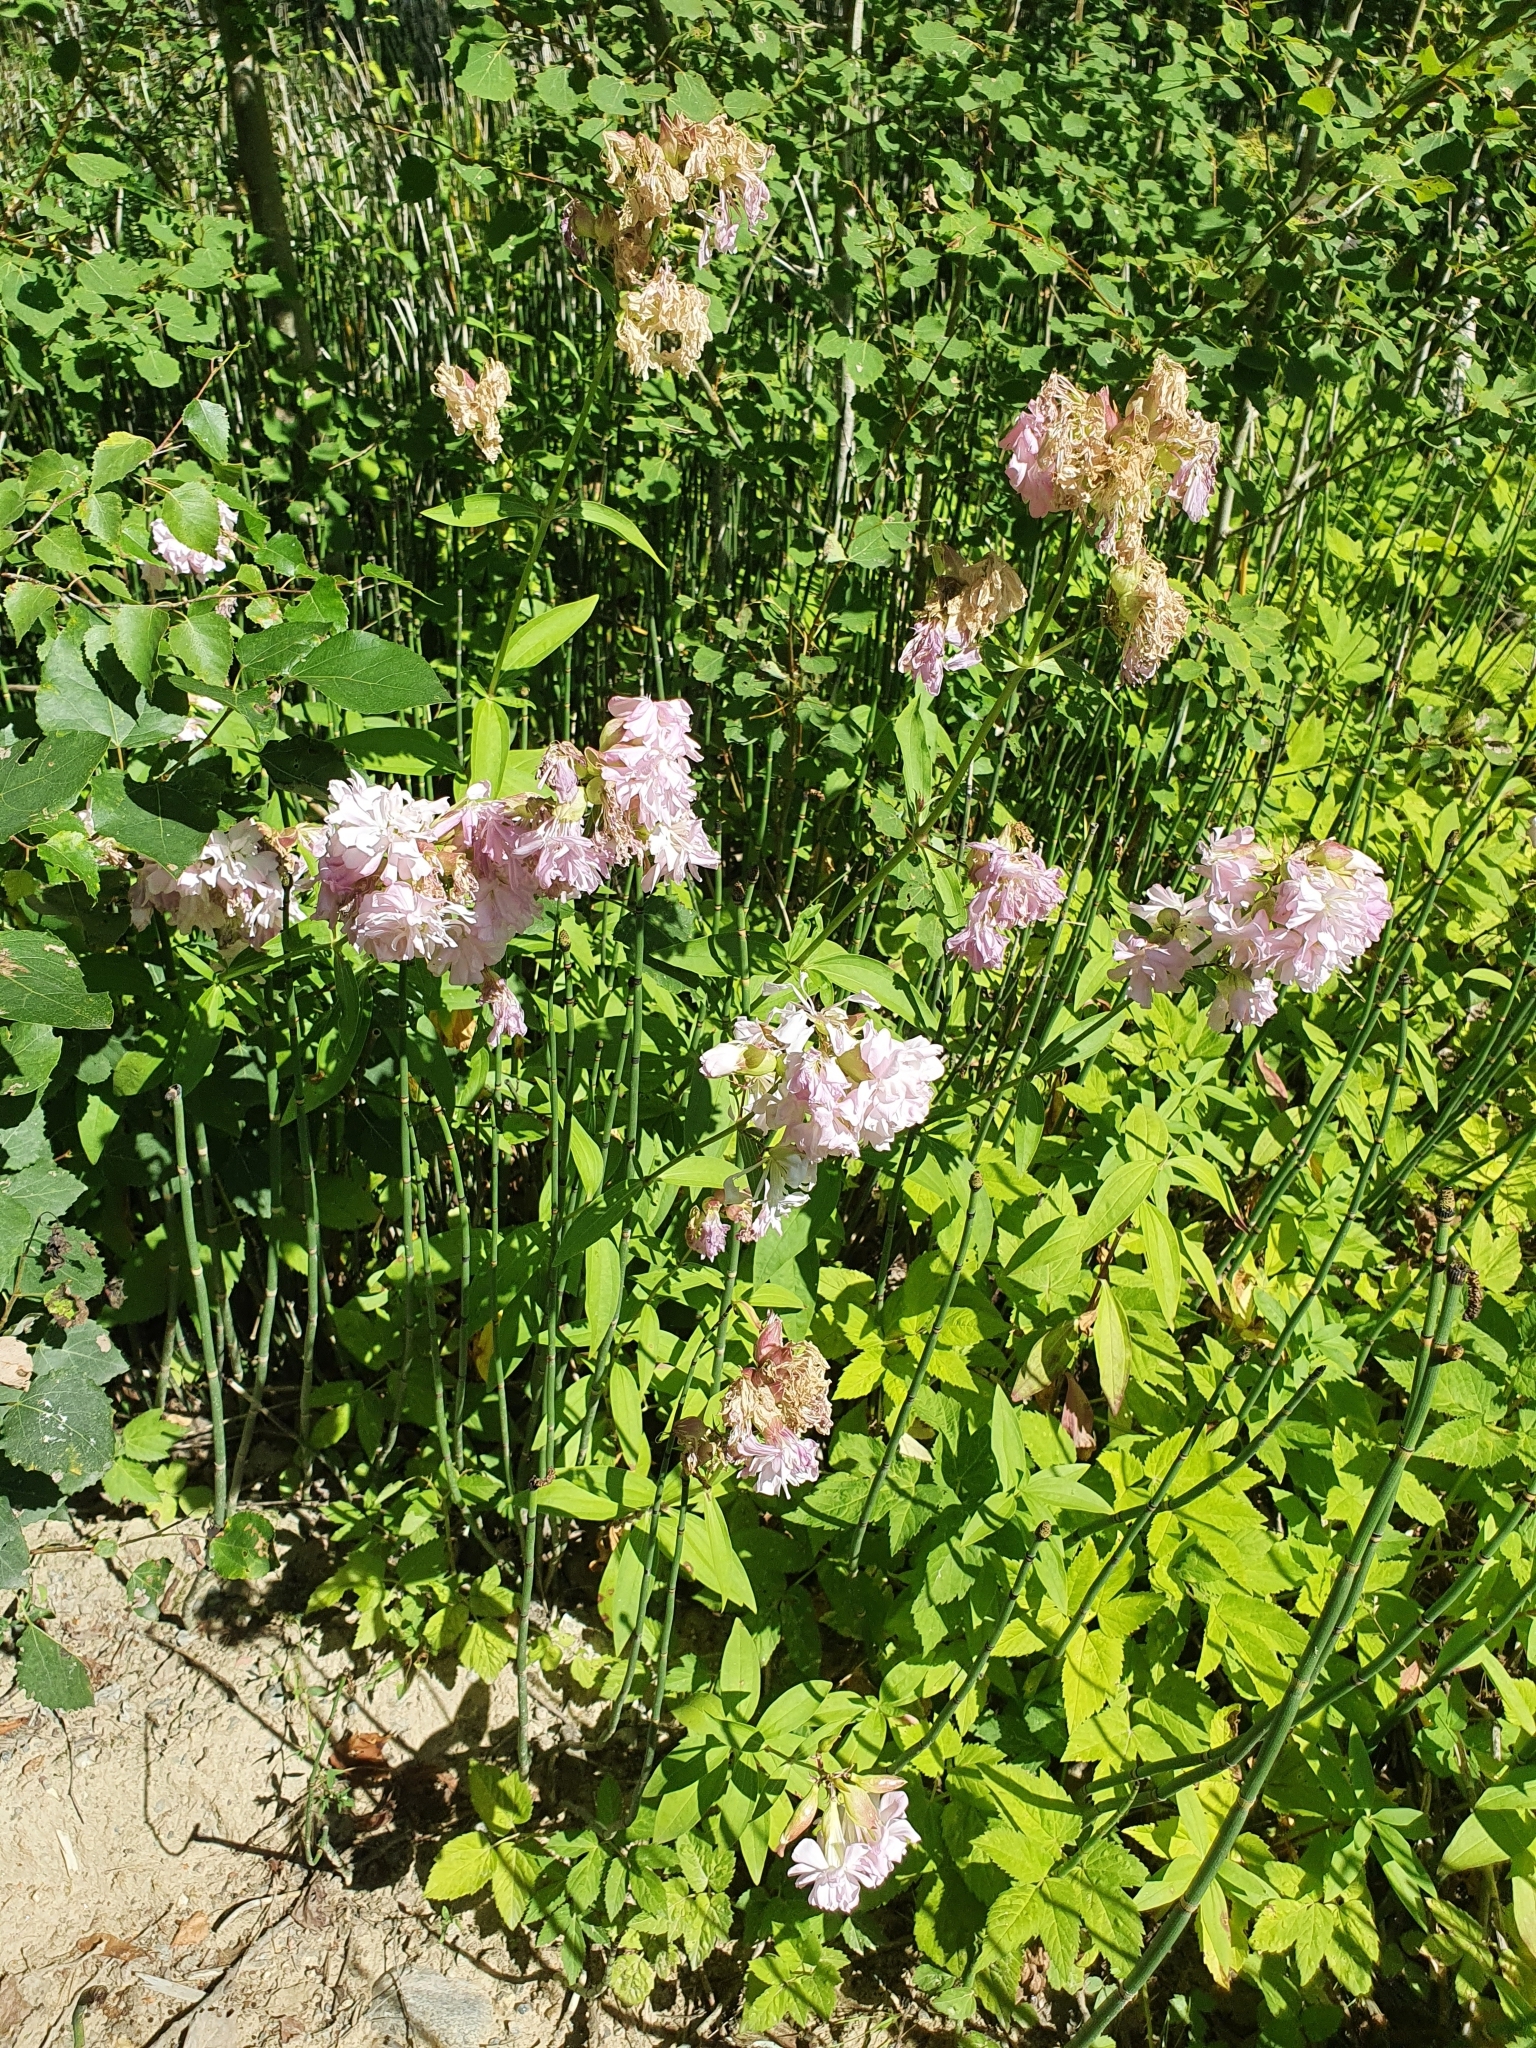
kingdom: Plantae
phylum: Tracheophyta
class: Magnoliopsida
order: Caryophyllales
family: Caryophyllaceae
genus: Saponaria
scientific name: Saponaria officinalis
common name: Soapwort
